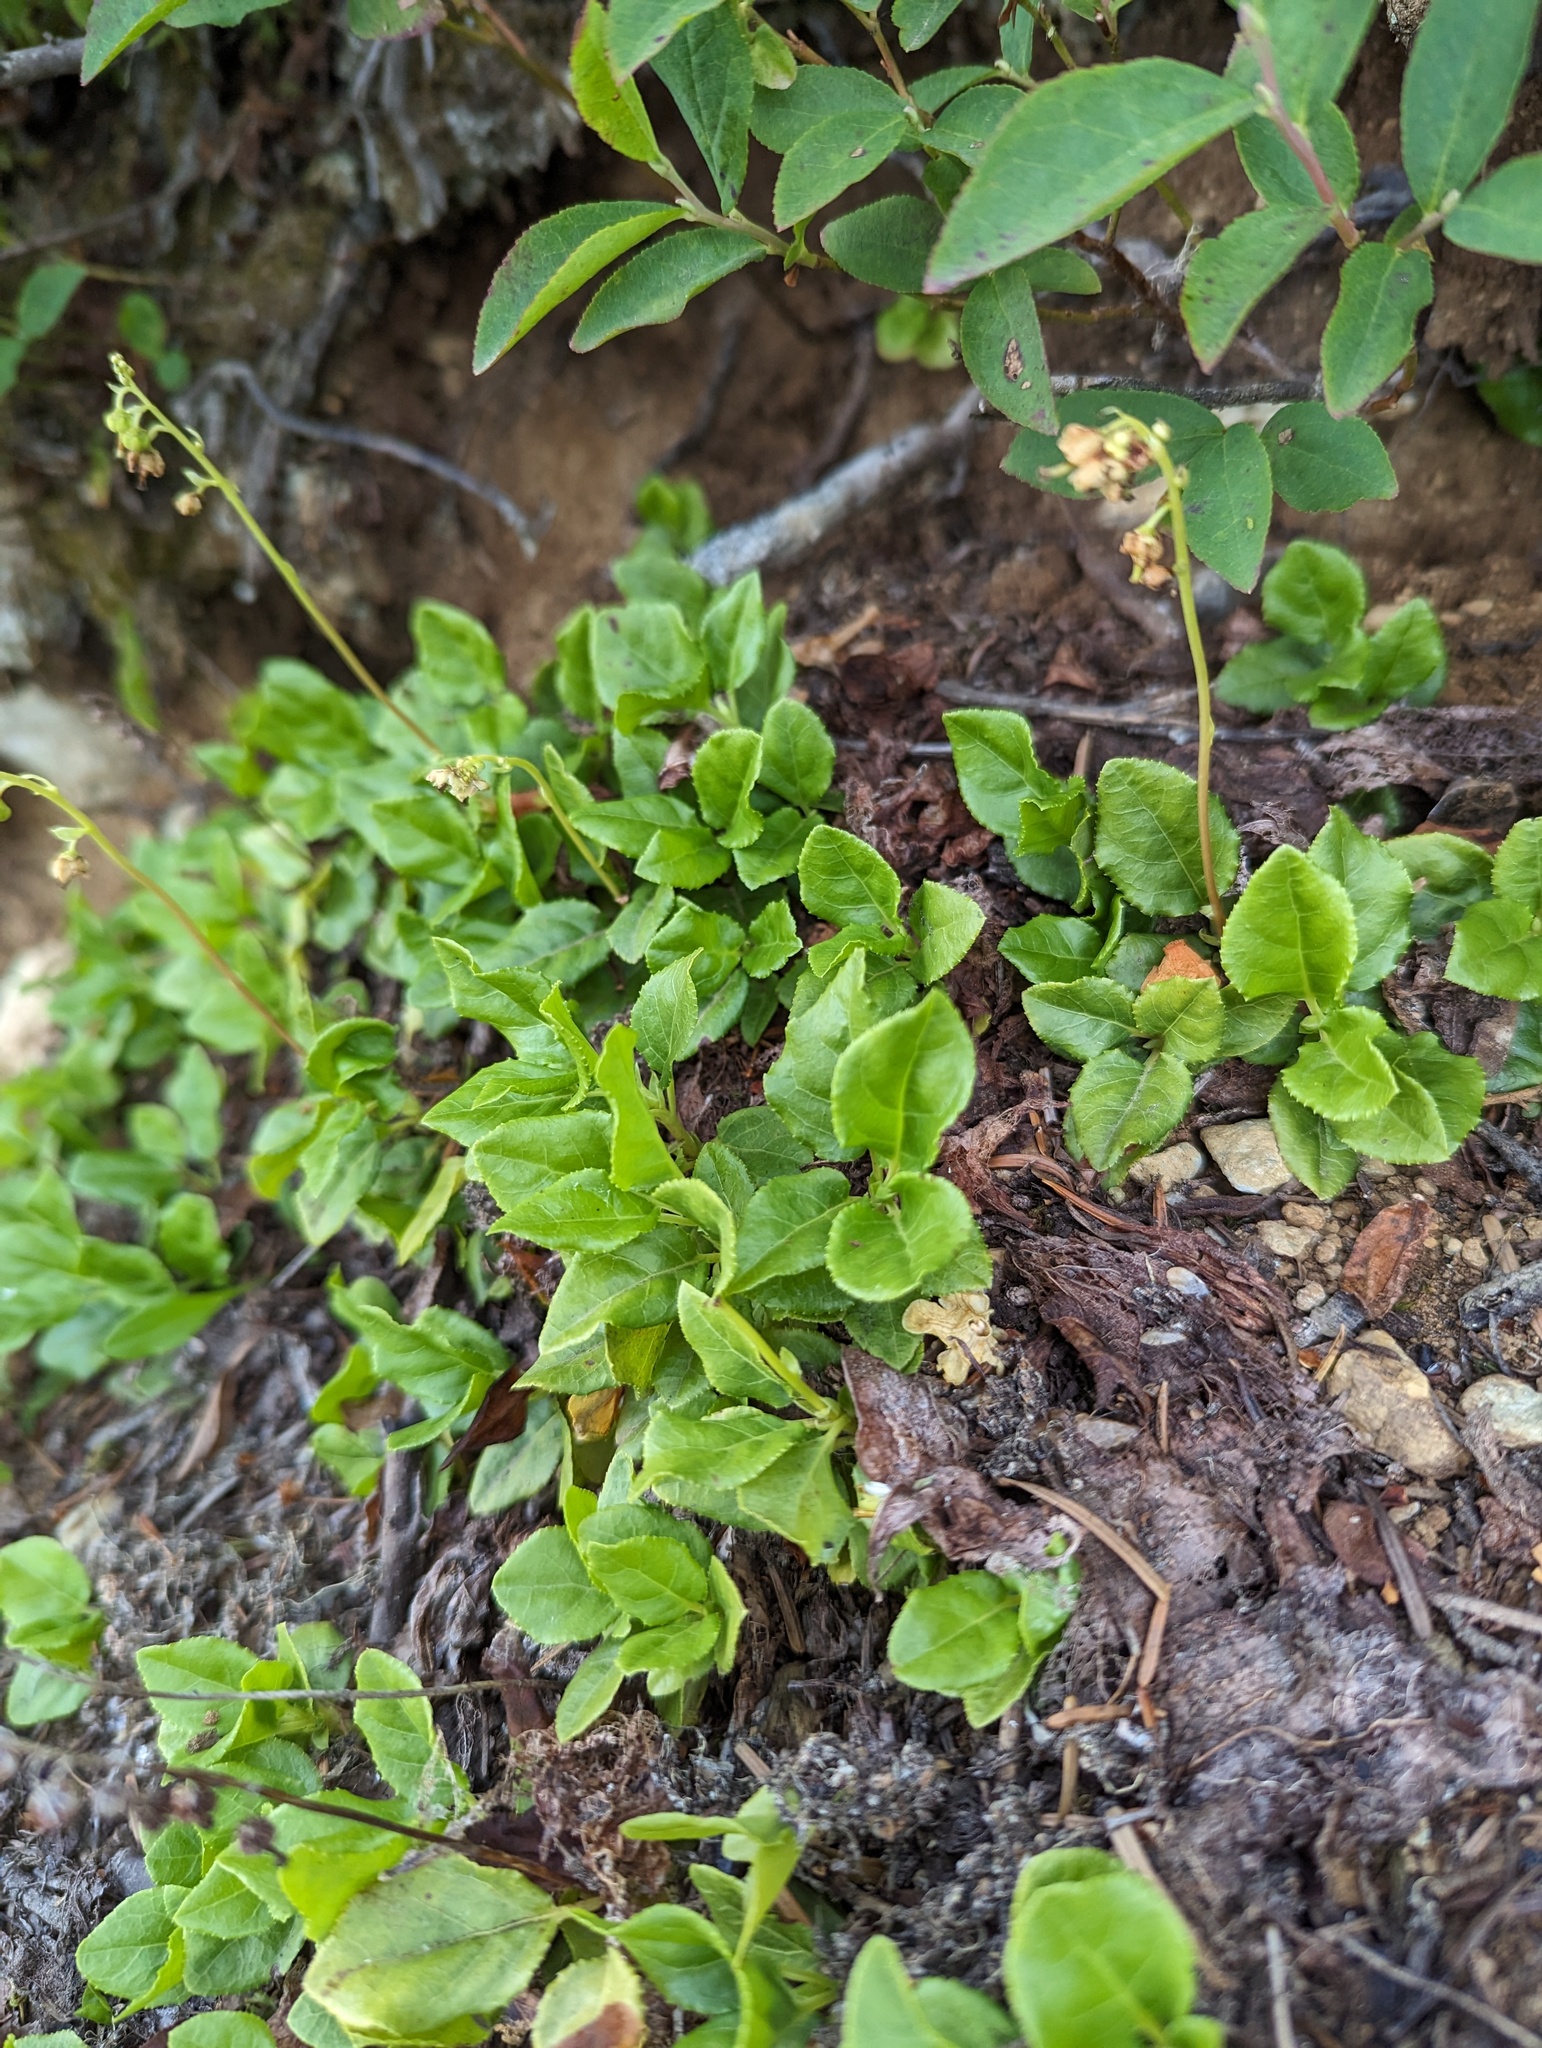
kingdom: Plantae
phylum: Tracheophyta
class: Magnoliopsida
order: Ericales
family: Ericaceae
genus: Orthilia
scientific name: Orthilia secunda
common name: One-sided orthilia
